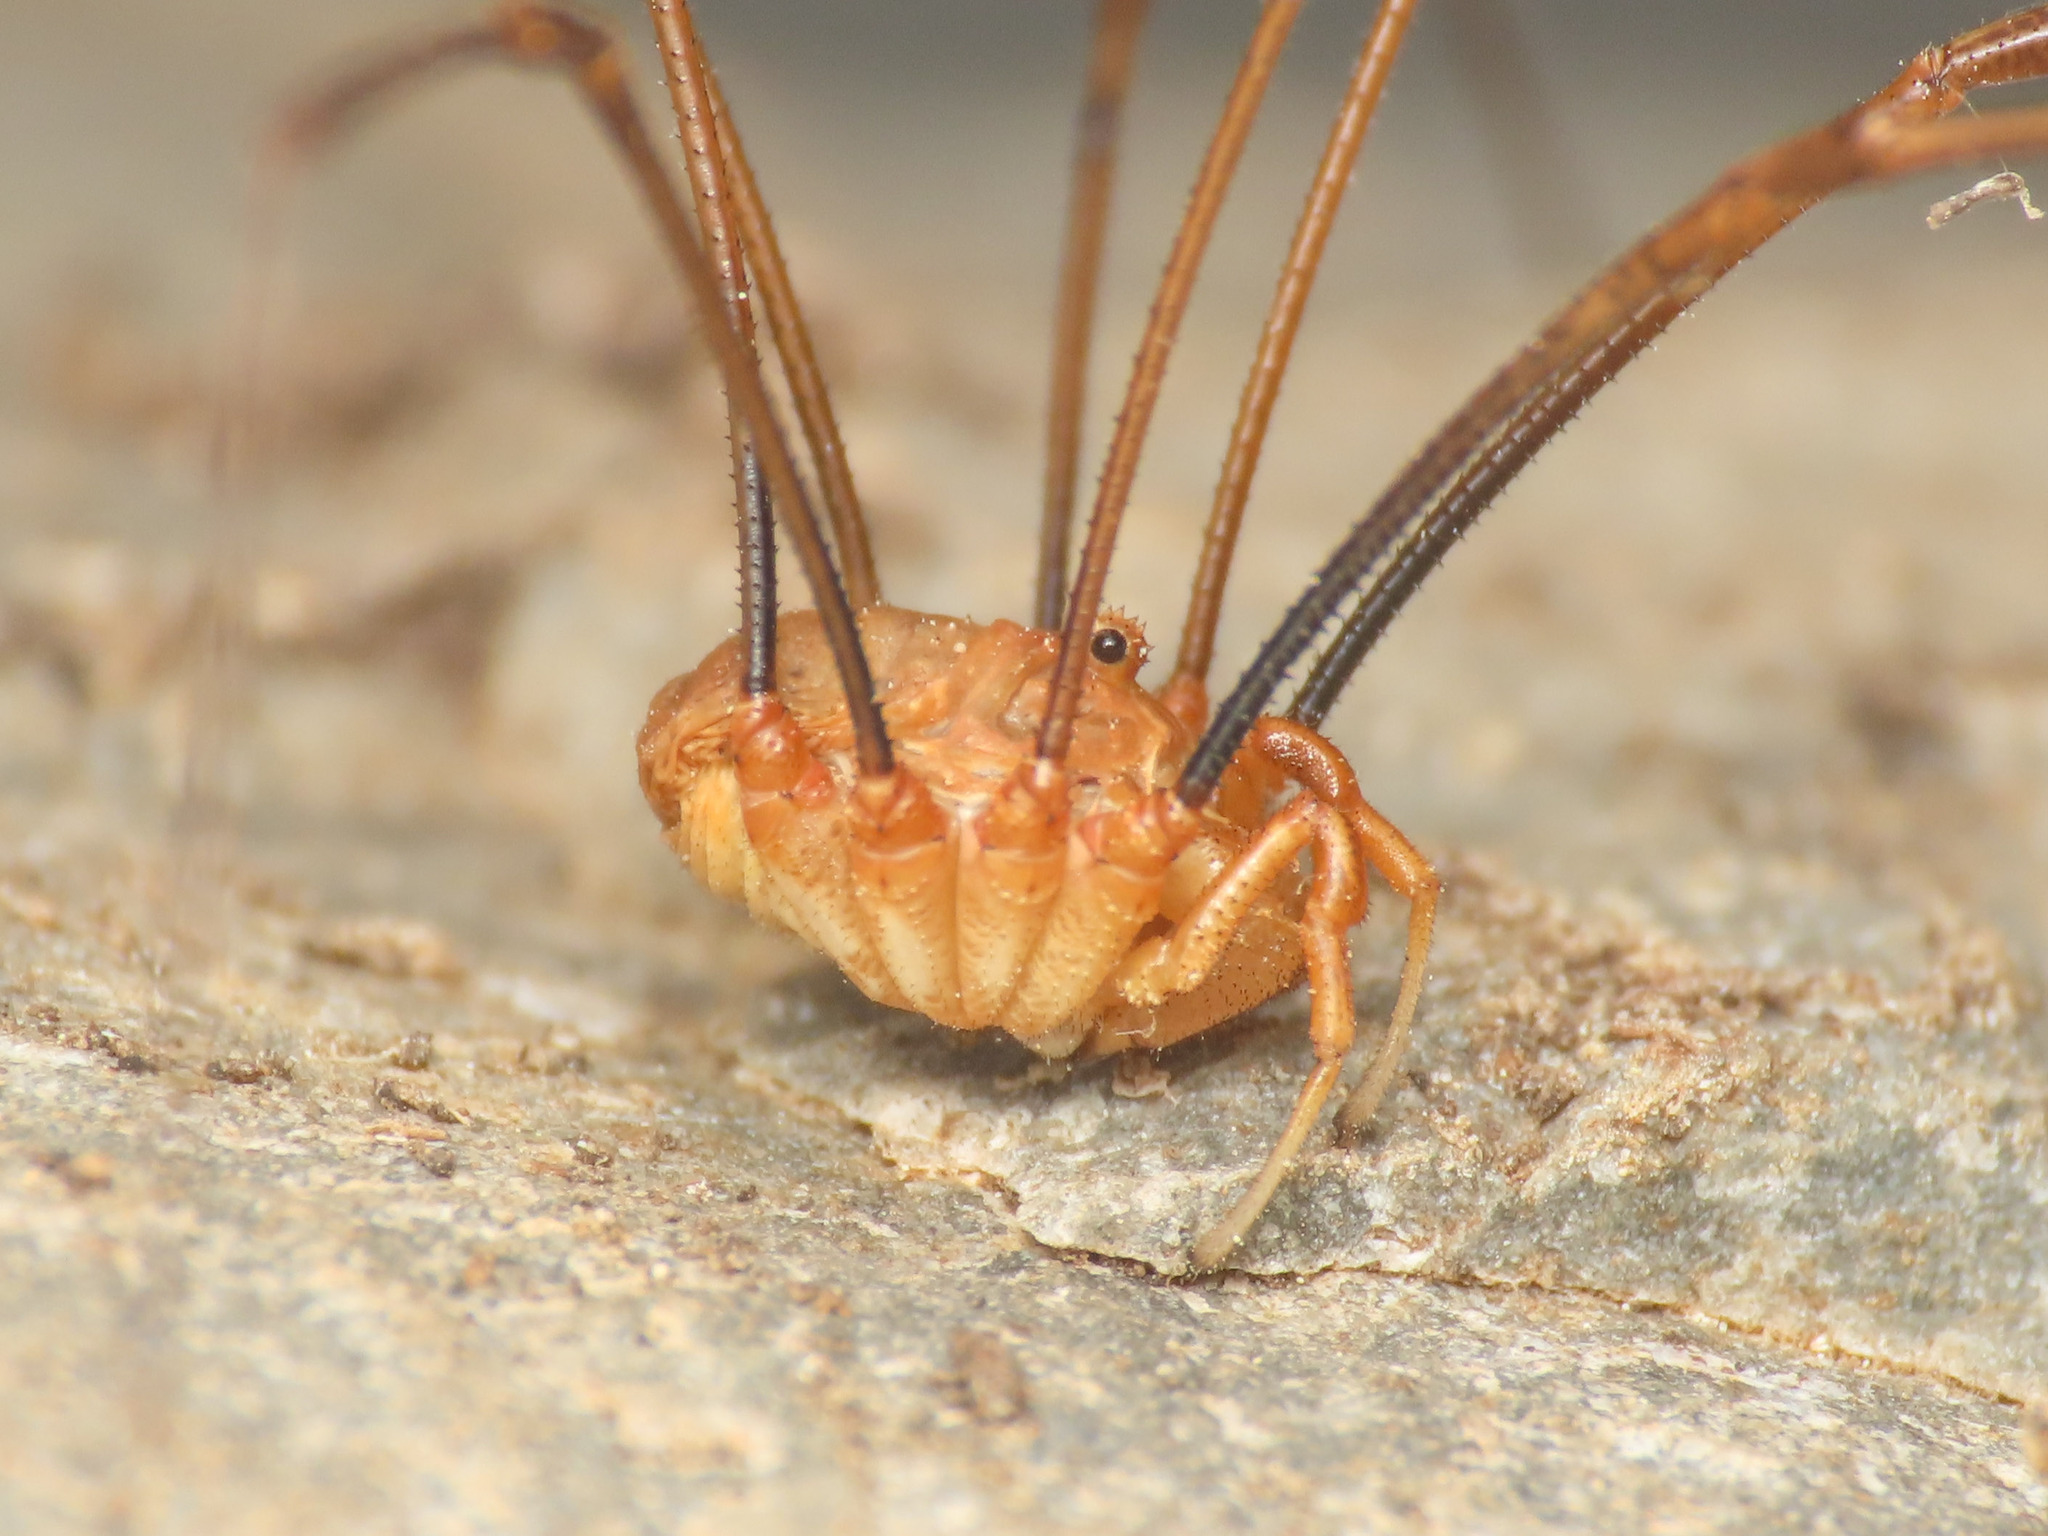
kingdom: Animalia
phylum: Arthropoda
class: Arachnida
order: Opiliones
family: Phalangiidae
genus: Dasylobus
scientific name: Dasylobus argentatus
